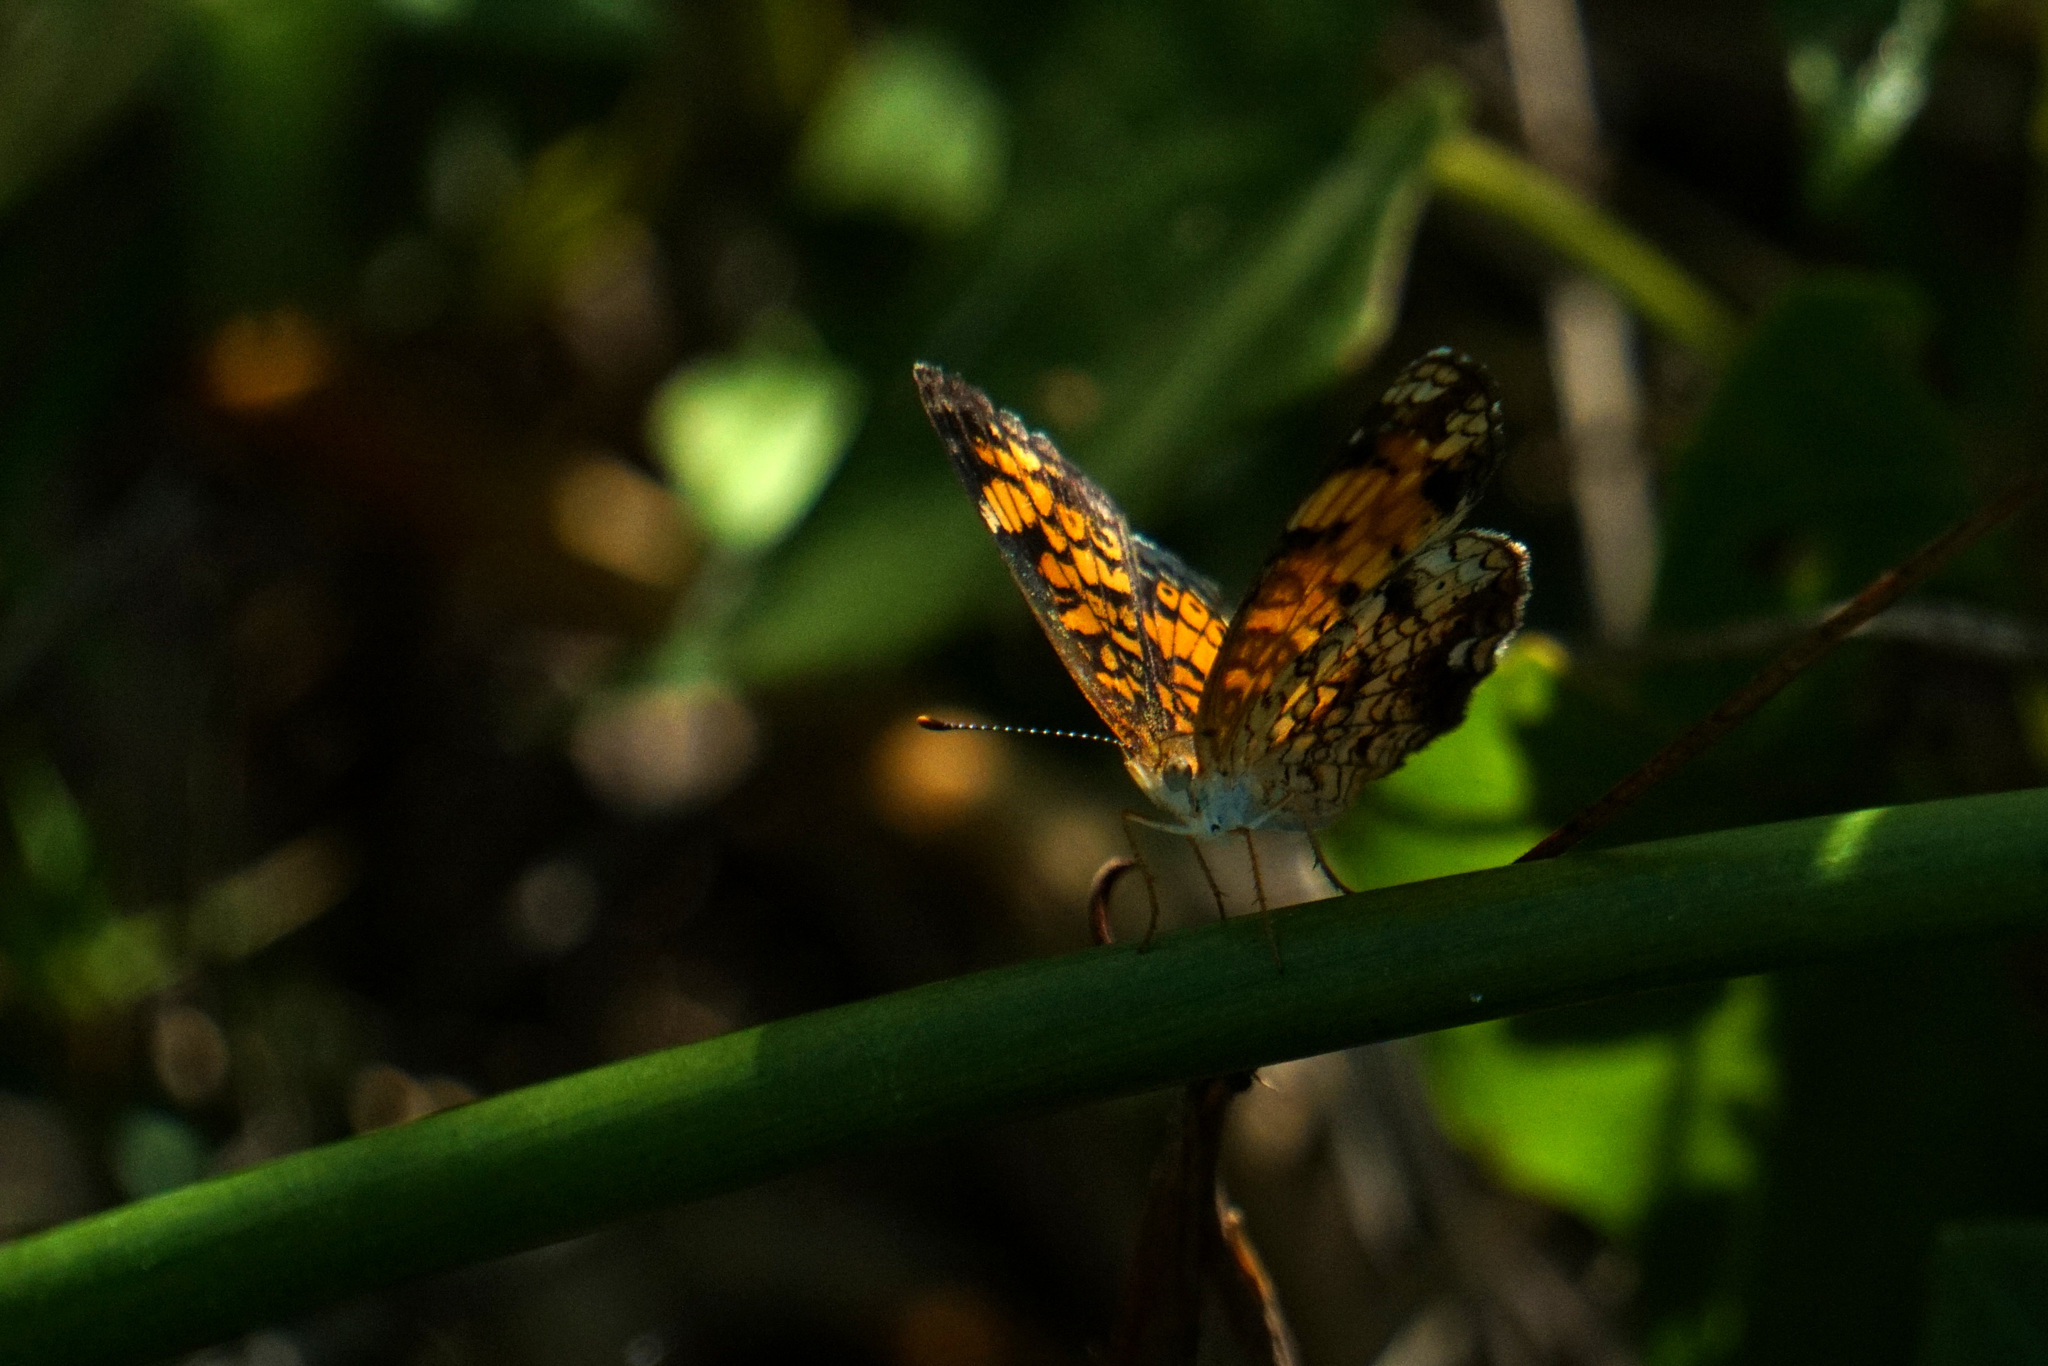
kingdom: Animalia
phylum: Arthropoda
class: Insecta
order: Lepidoptera
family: Nymphalidae
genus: Phyciodes
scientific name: Phyciodes tharos
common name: Pearl crescent
